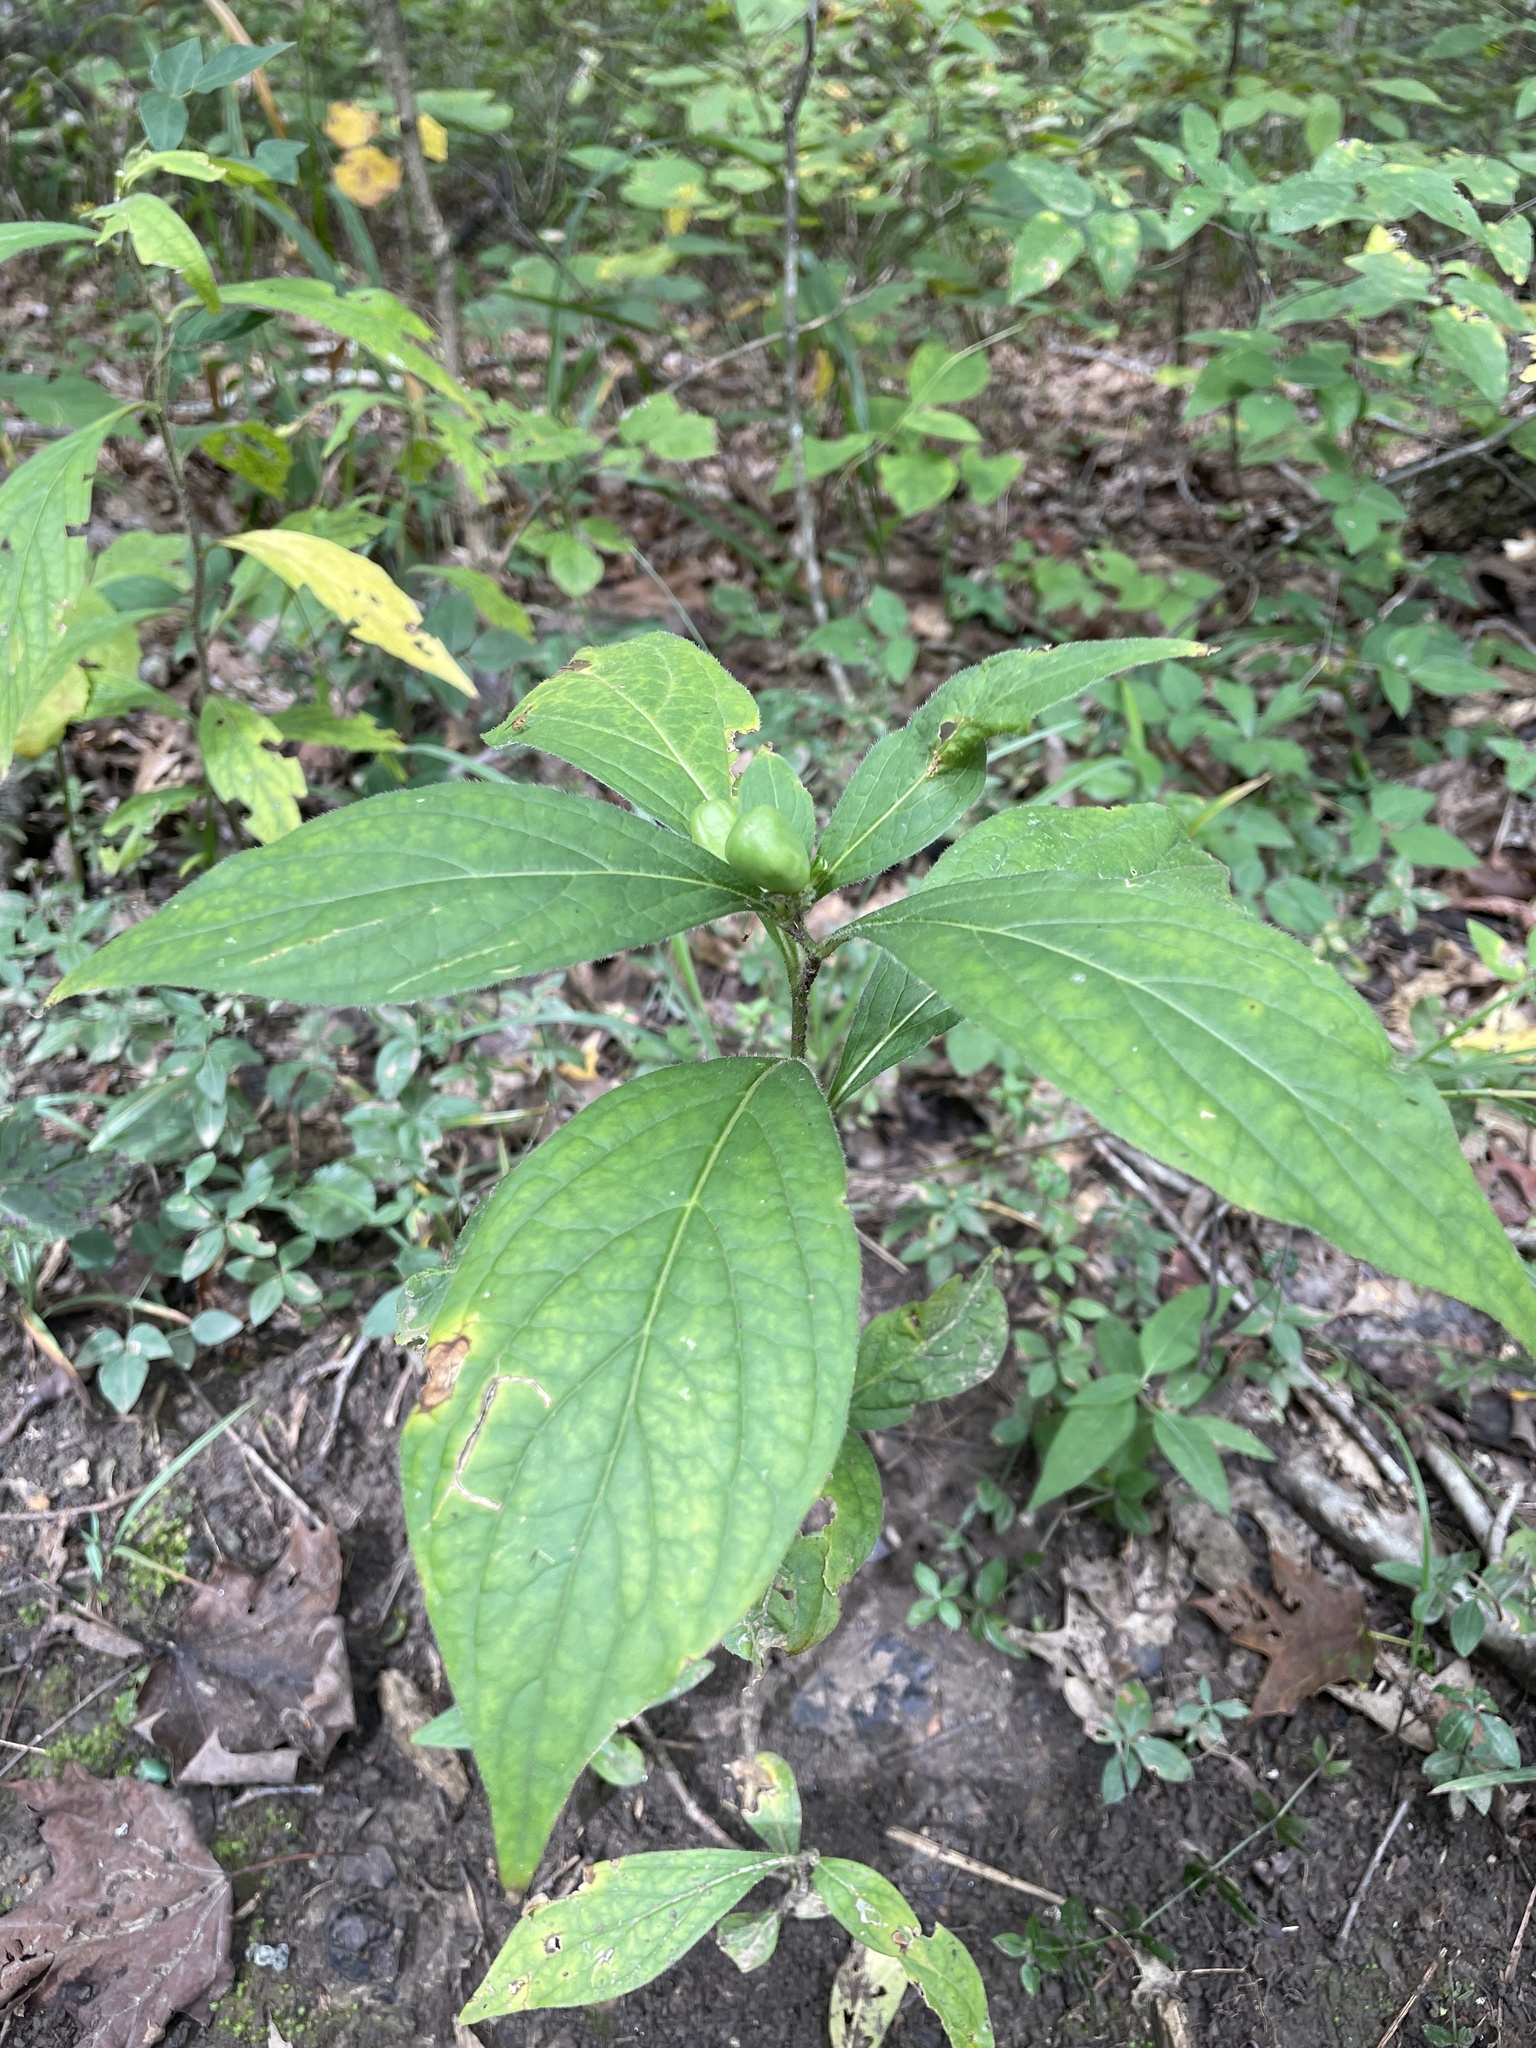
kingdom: Plantae
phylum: Tracheophyta
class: Magnoliopsida
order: Malpighiales
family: Violaceae
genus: Cubelium
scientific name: Cubelium concolor
